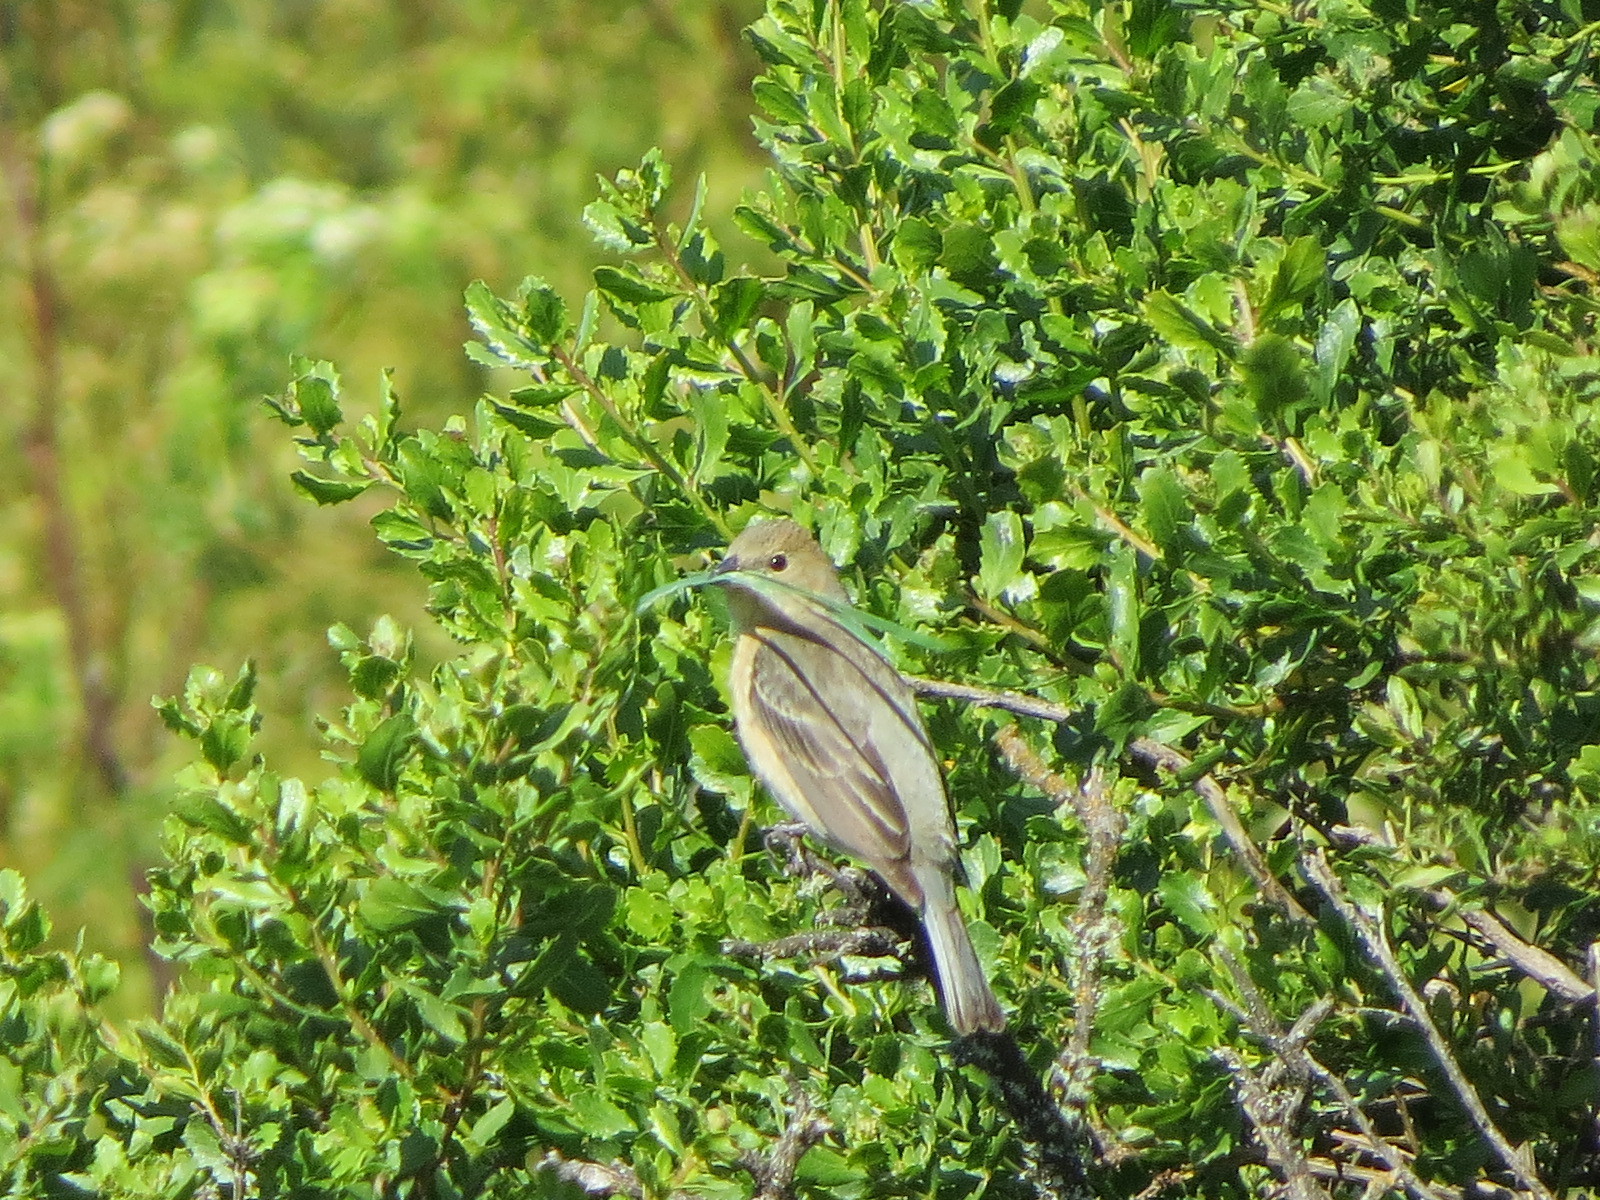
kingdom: Animalia
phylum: Chordata
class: Aves
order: Passeriformes
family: Cardinalidae
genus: Passerina
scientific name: Passerina amoena
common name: Lazuli bunting
